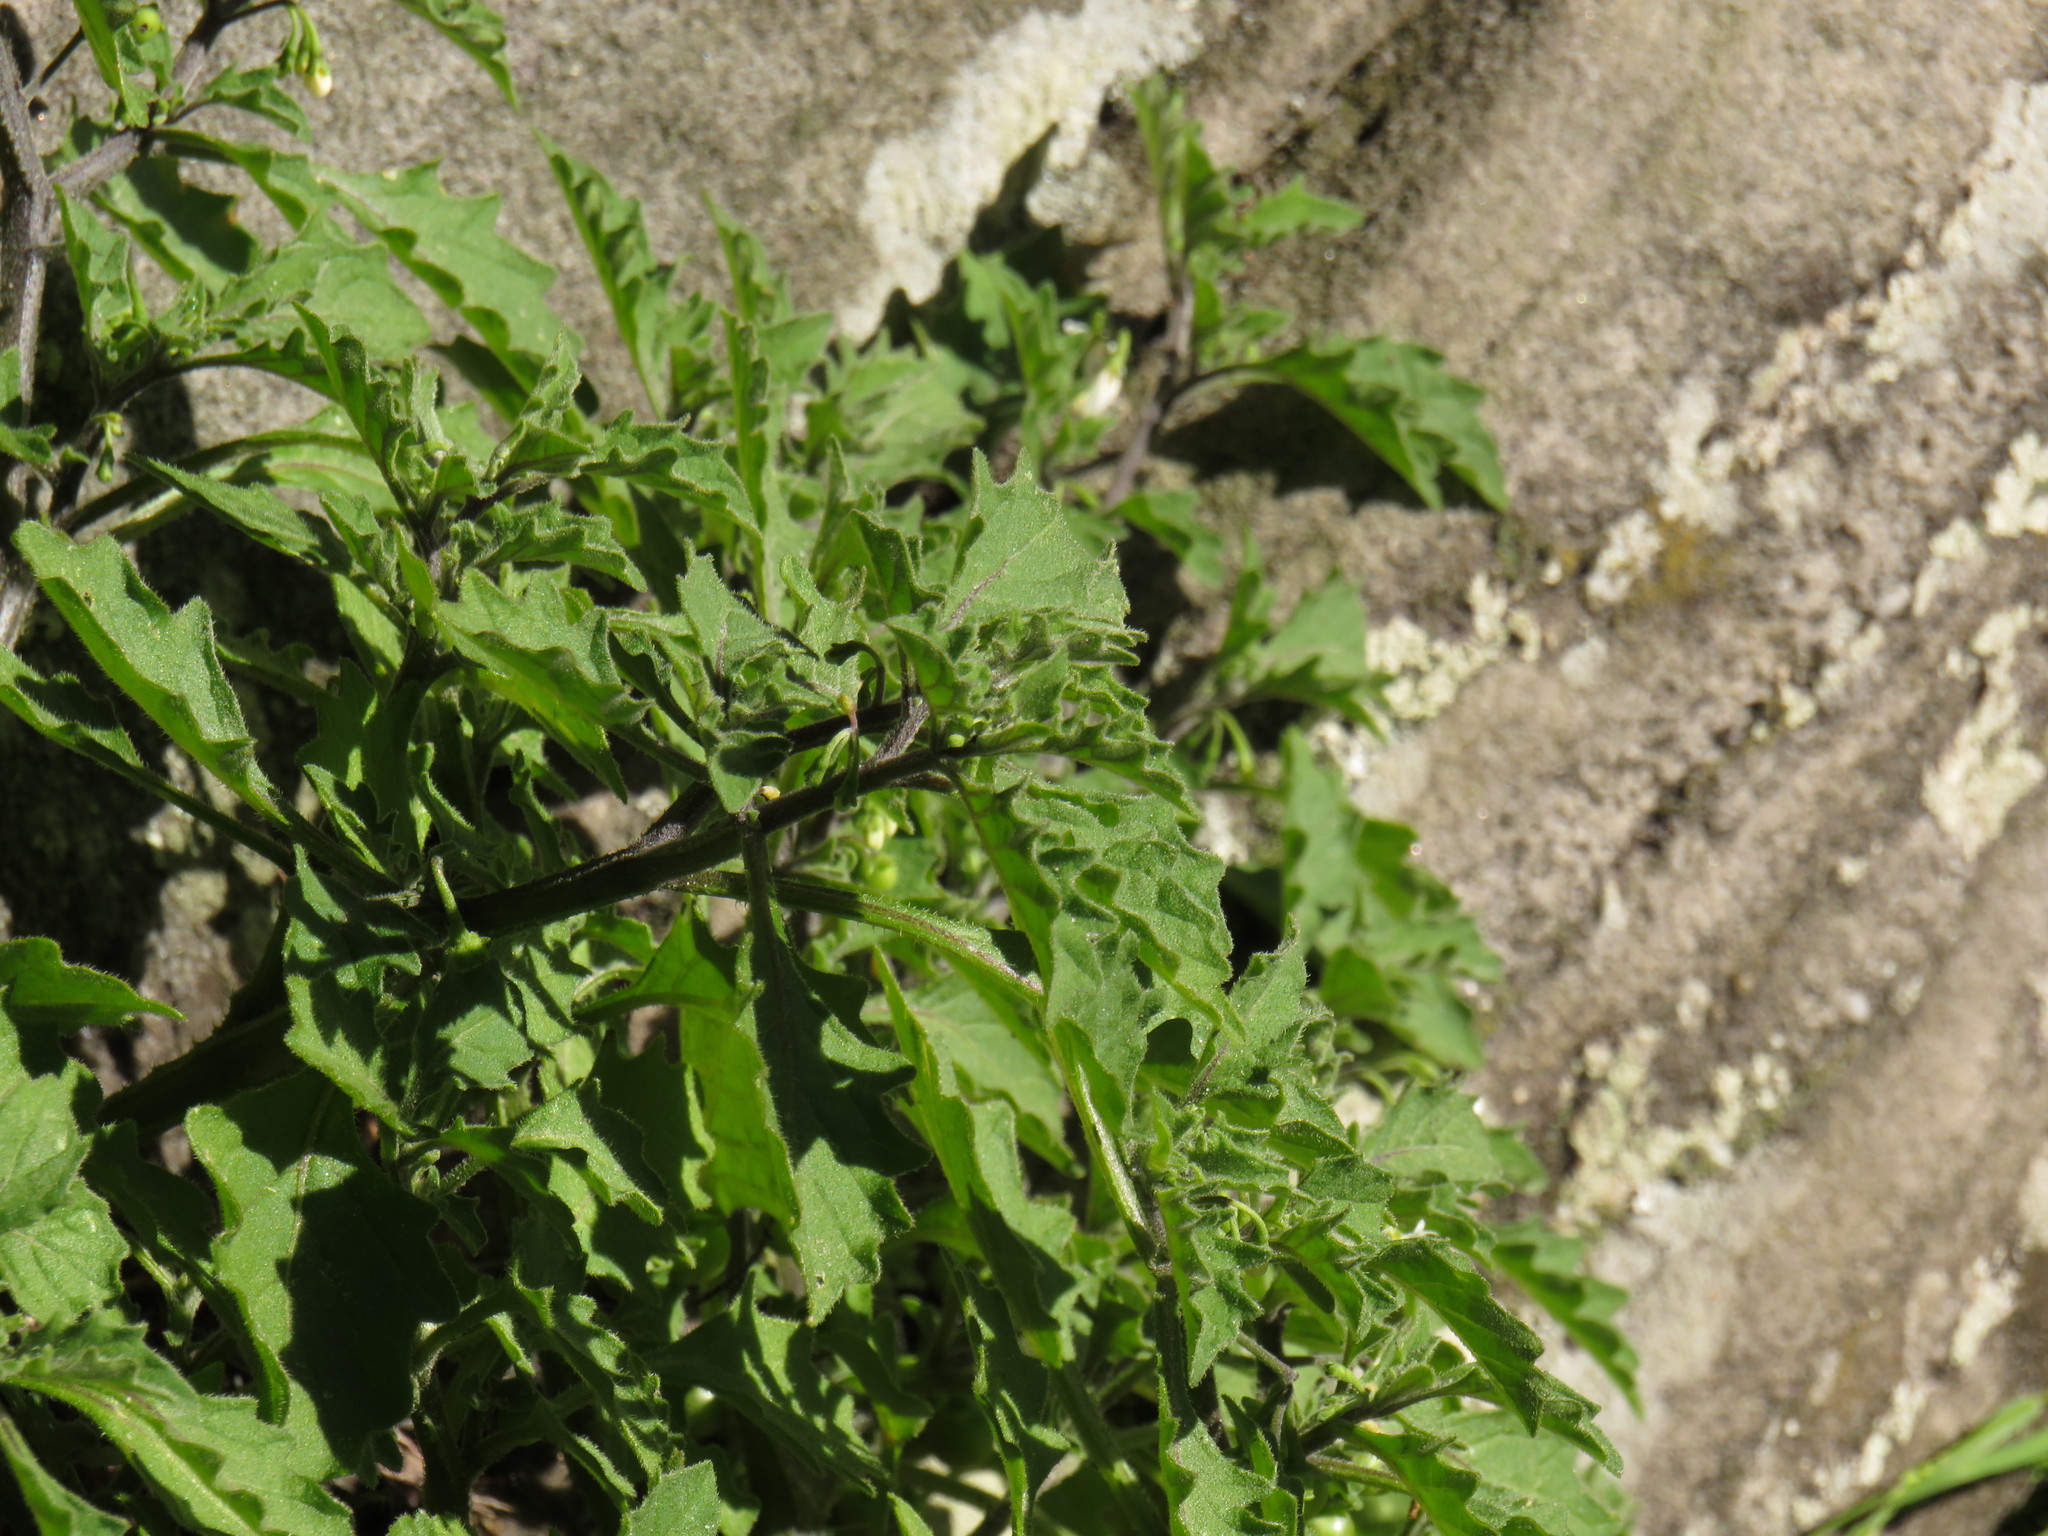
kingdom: Plantae
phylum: Tracheophyta
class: Magnoliopsida
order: Solanales
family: Solanaceae
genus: Solanum
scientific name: Solanum retroflexum
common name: Wonderberry
